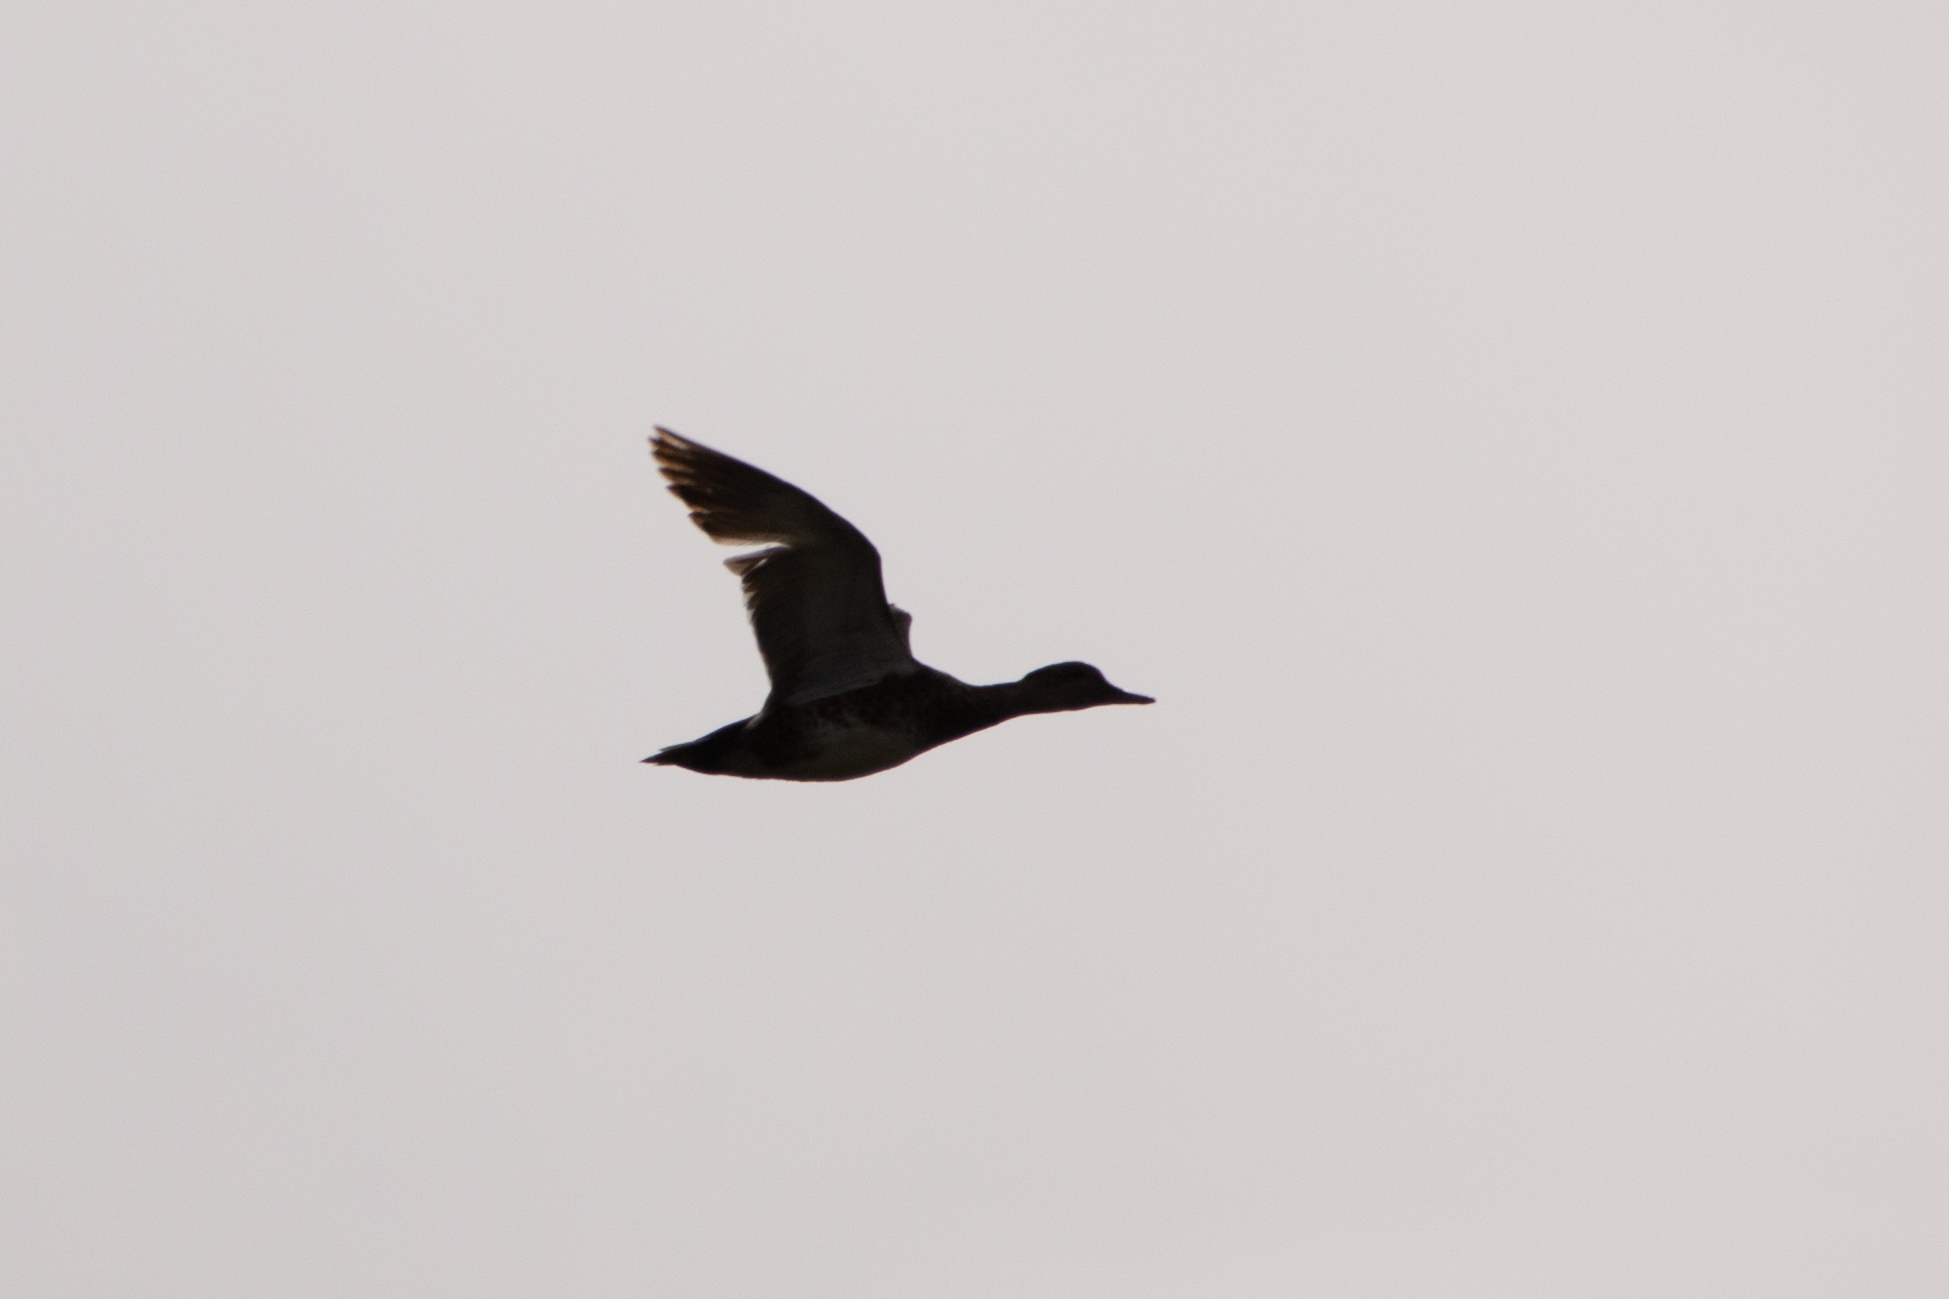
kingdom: Animalia
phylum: Chordata
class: Aves
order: Anseriformes
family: Anatidae
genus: Mareca
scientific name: Mareca strepera
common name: Gadwall
